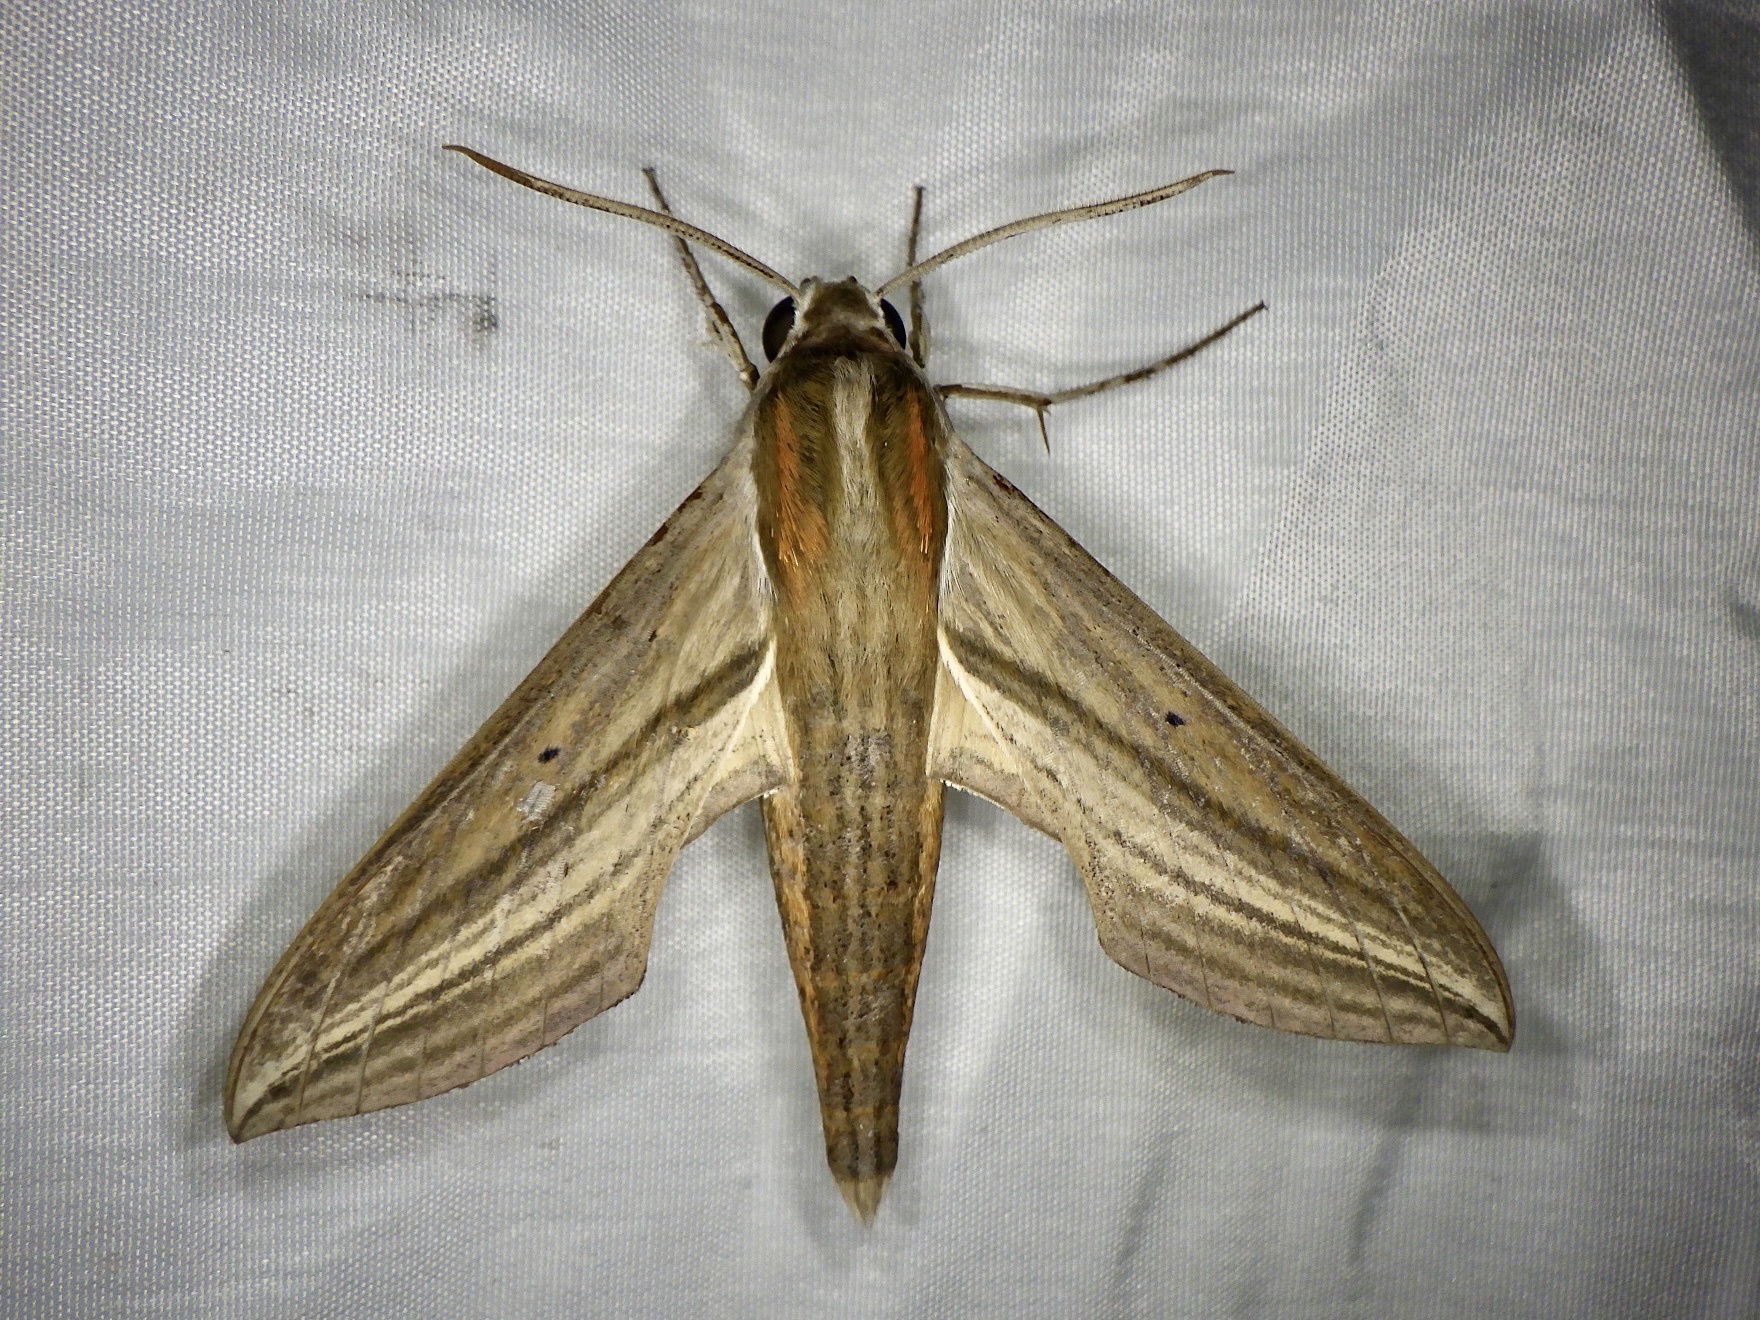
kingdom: Animalia
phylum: Arthropoda
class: Insecta
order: Lepidoptera
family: Sphingidae
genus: Theretra
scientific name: Theretra japonica
